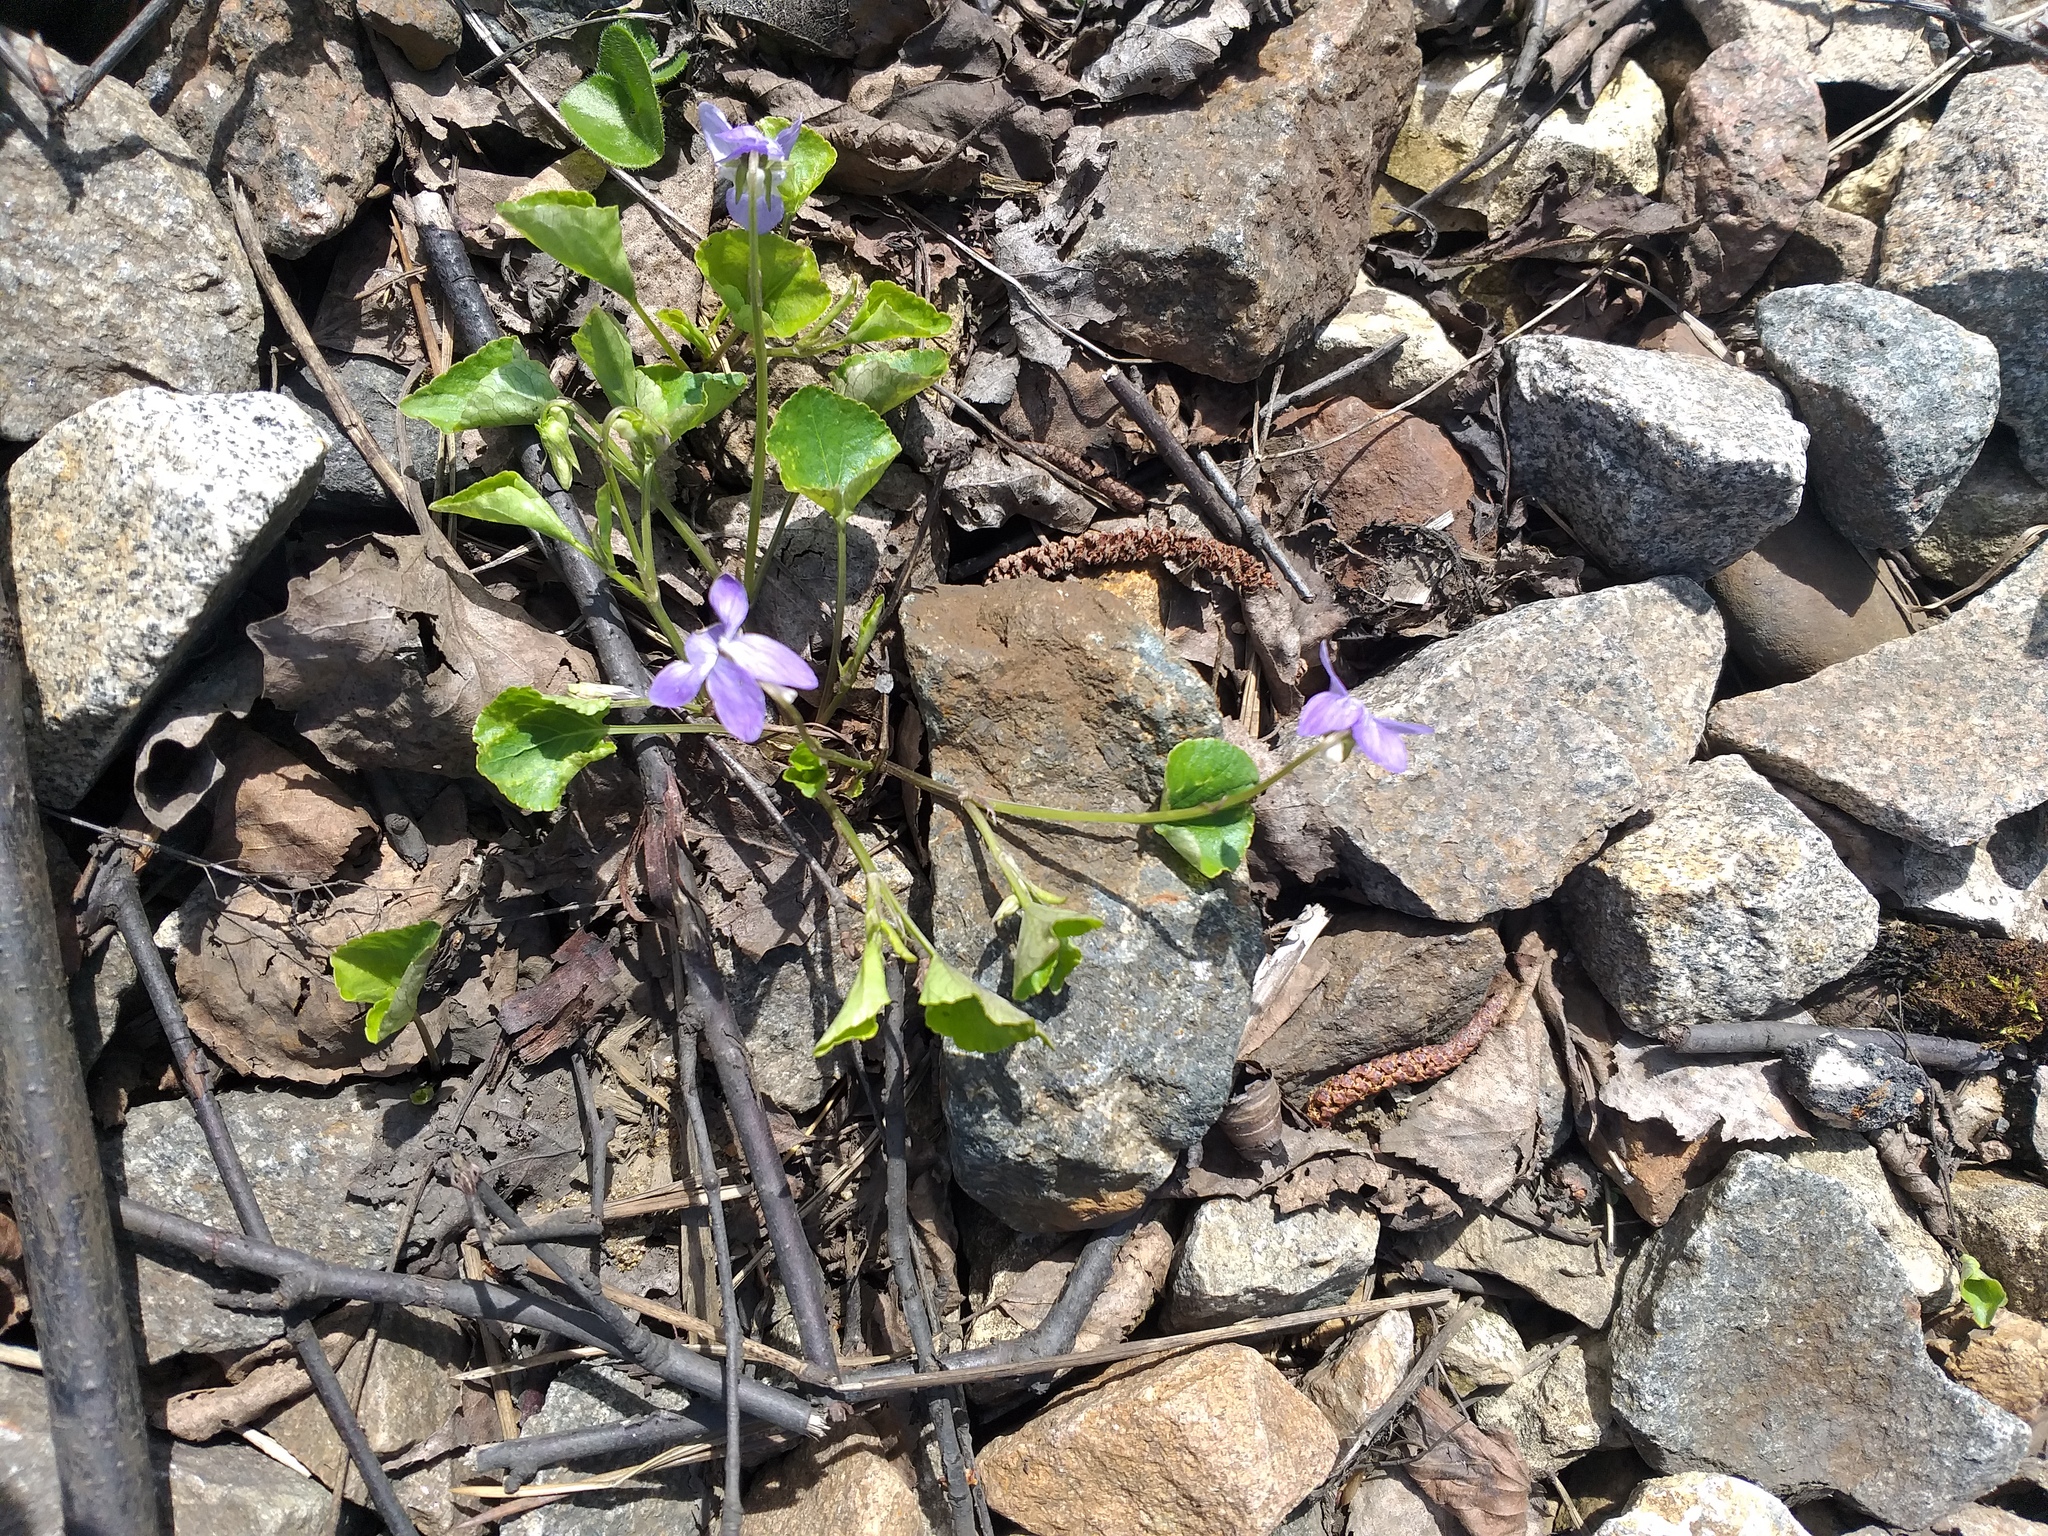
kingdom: Plantae
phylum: Tracheophyta
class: Magnoliopsida
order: Malpighiales
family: Violaceae
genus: Viola
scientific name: Viola riviniana
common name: Common dog-violet
